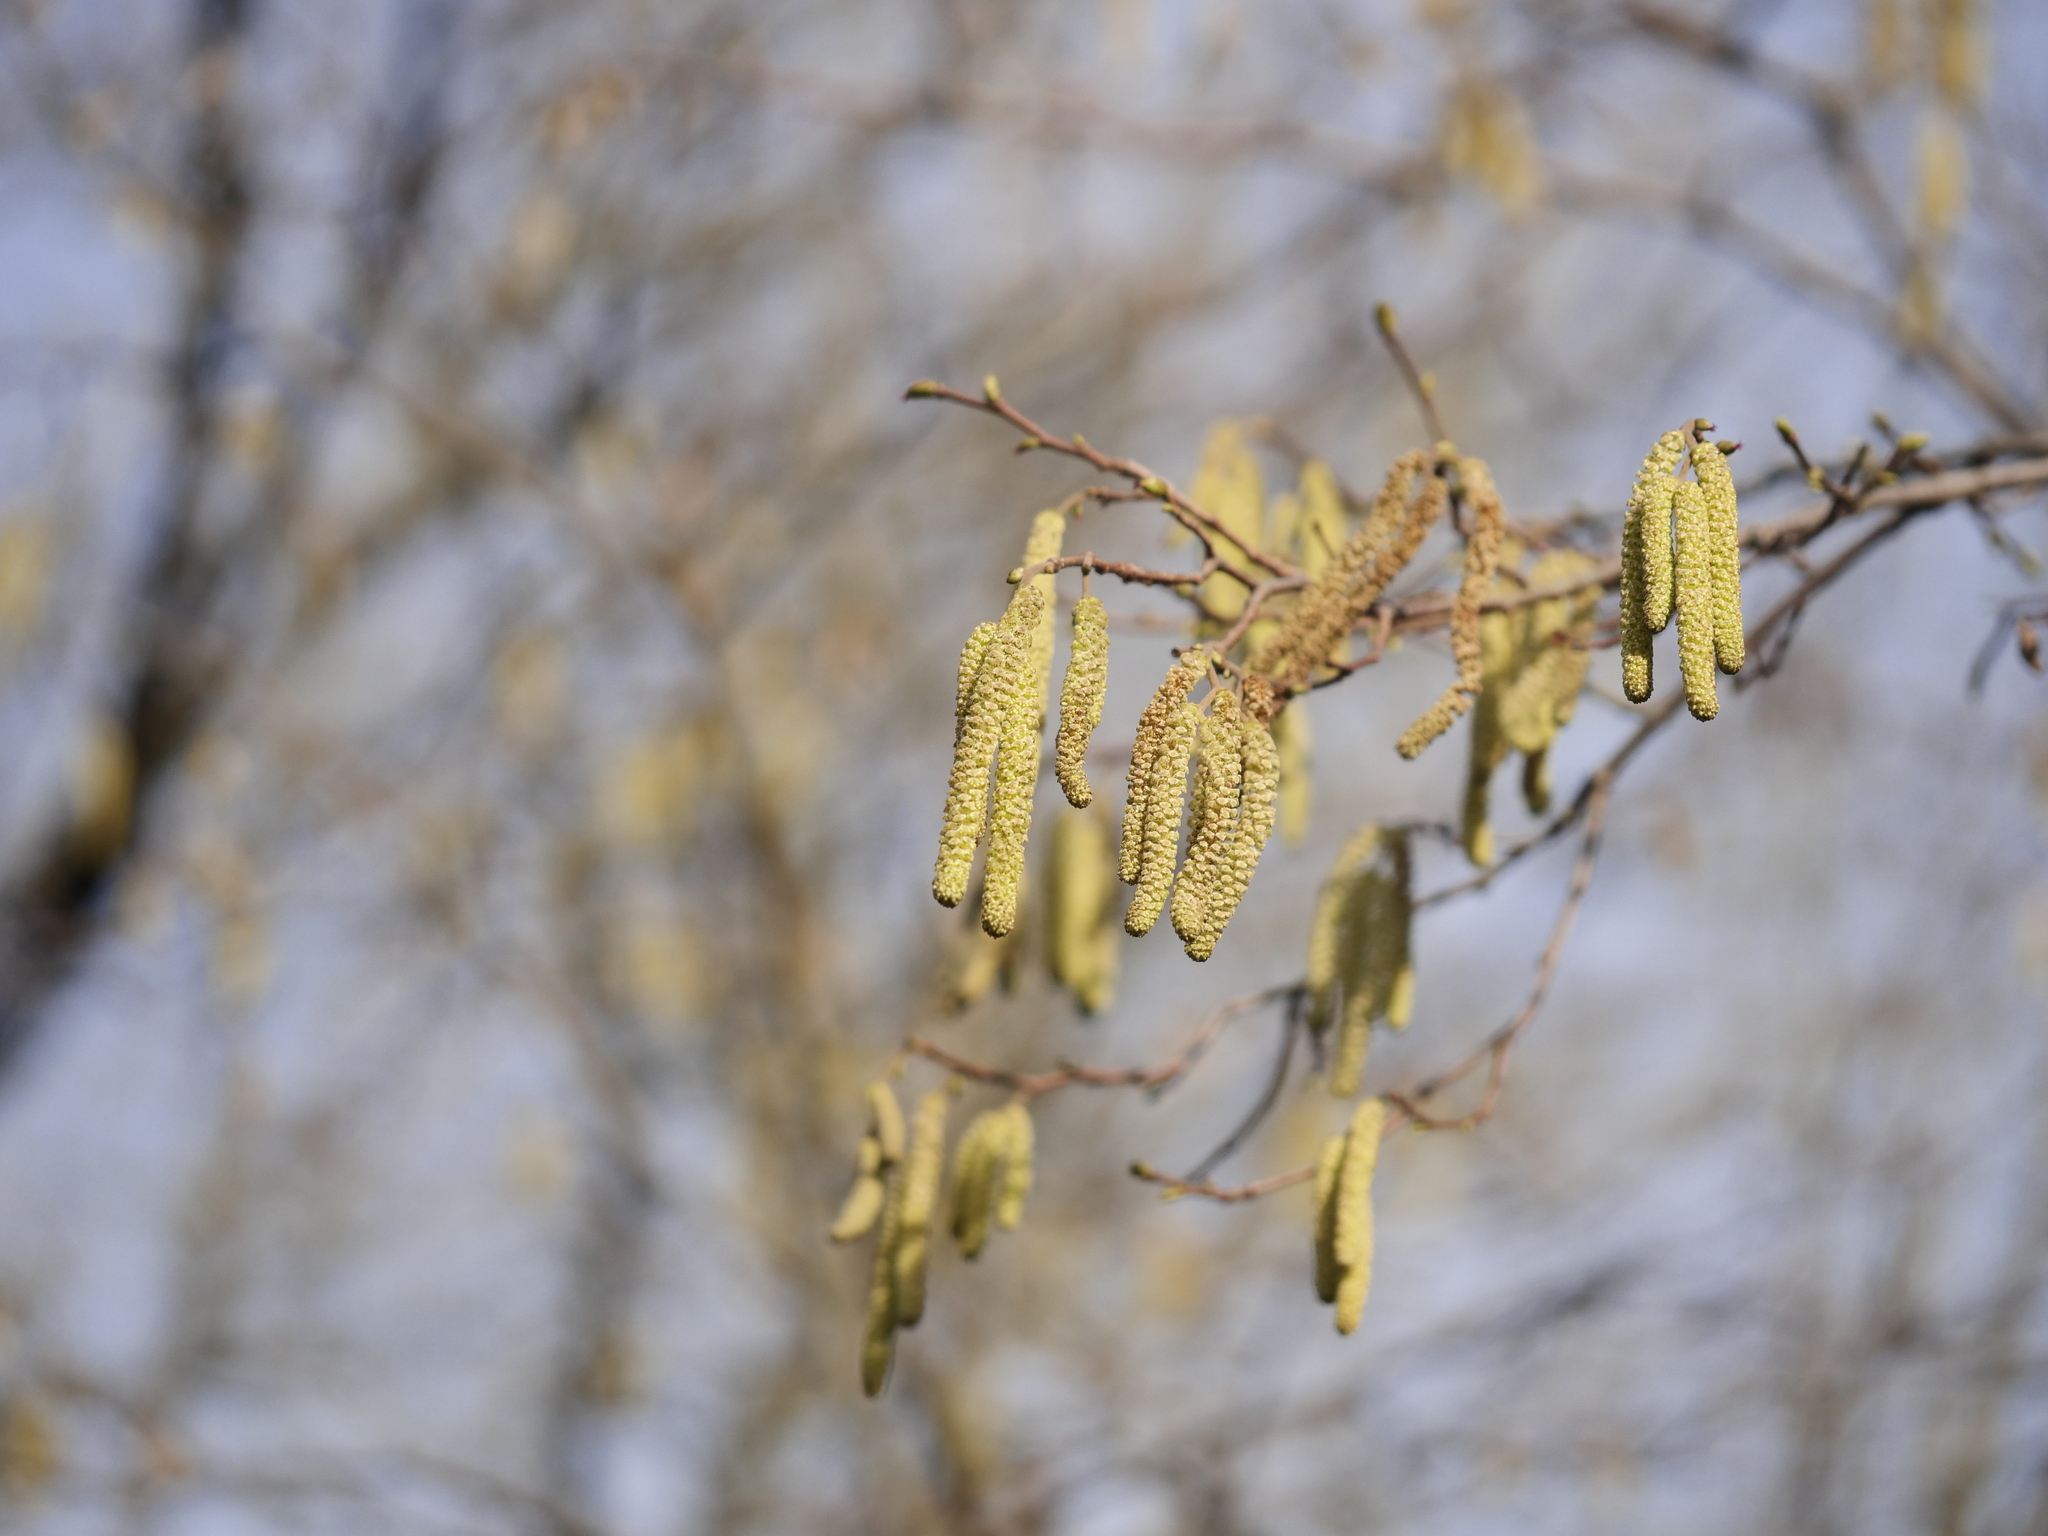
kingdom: Plantae
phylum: Tracheophyta
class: Magnoliopsida
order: Fagales
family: Betulaceae
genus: Corylus
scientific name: Corylus avellana
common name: European hazel
